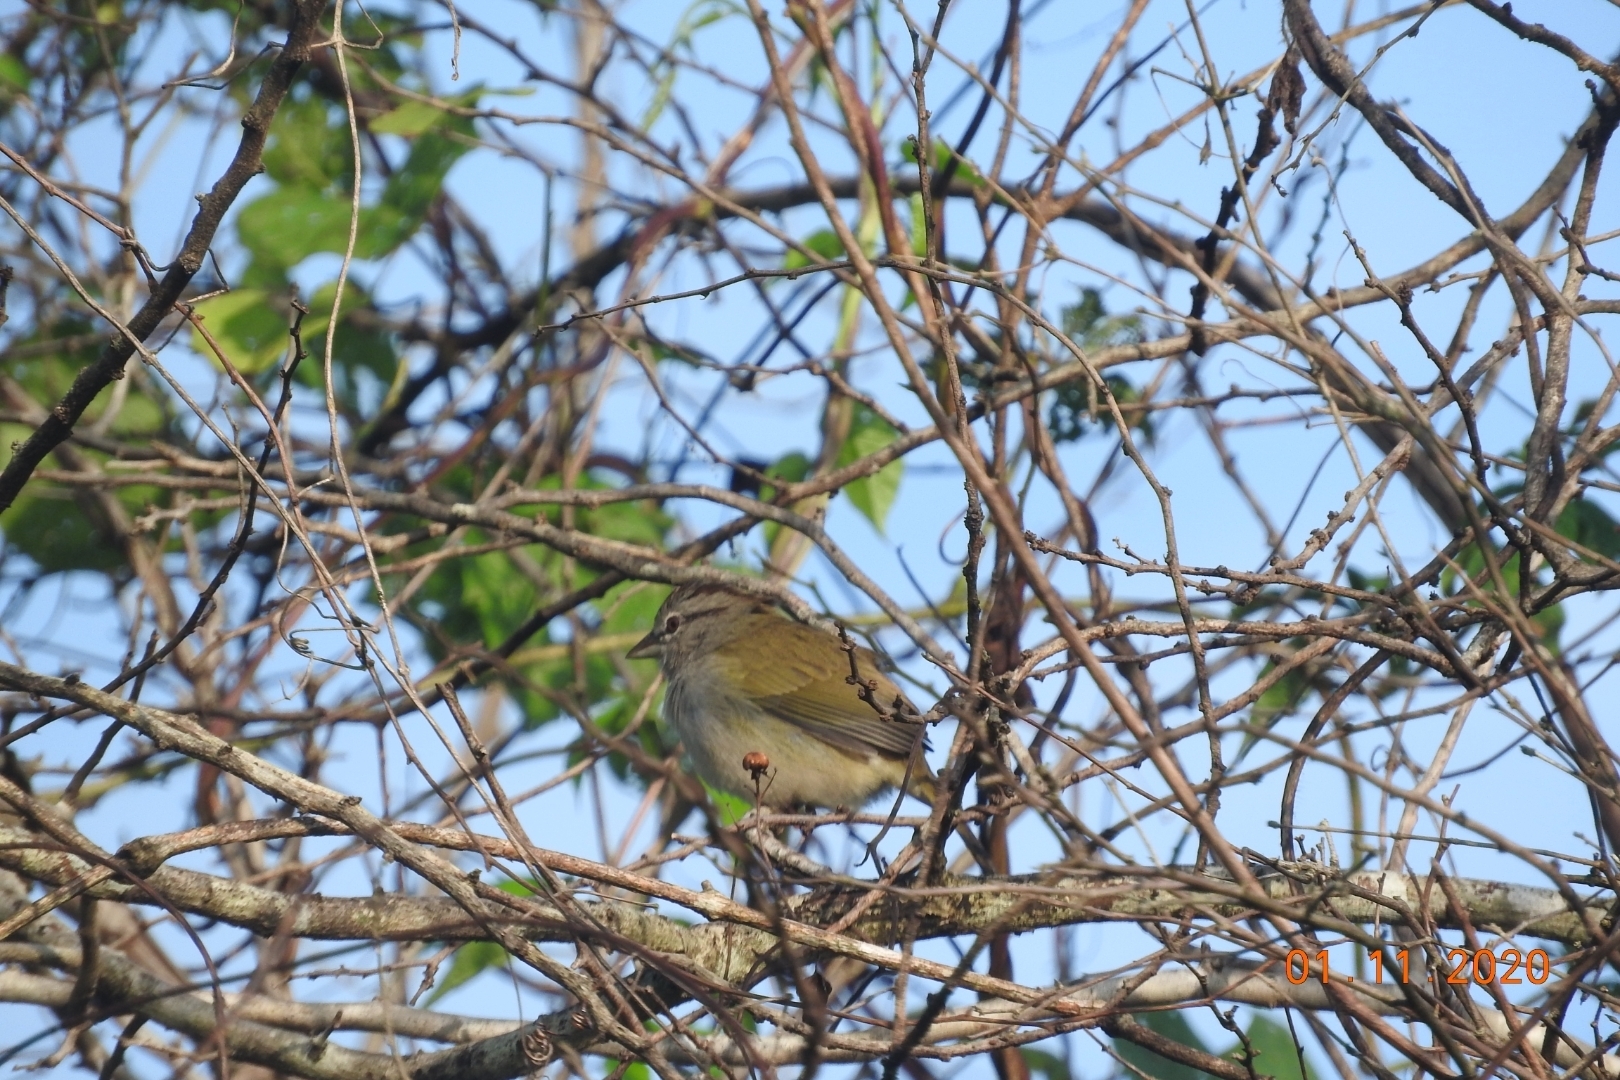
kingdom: Animalia
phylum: Chordata
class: Aves
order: Passeriformes
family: Passerellidae
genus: Arremonops
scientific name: Arremonops rufivirgatus
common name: Olive sparrow
